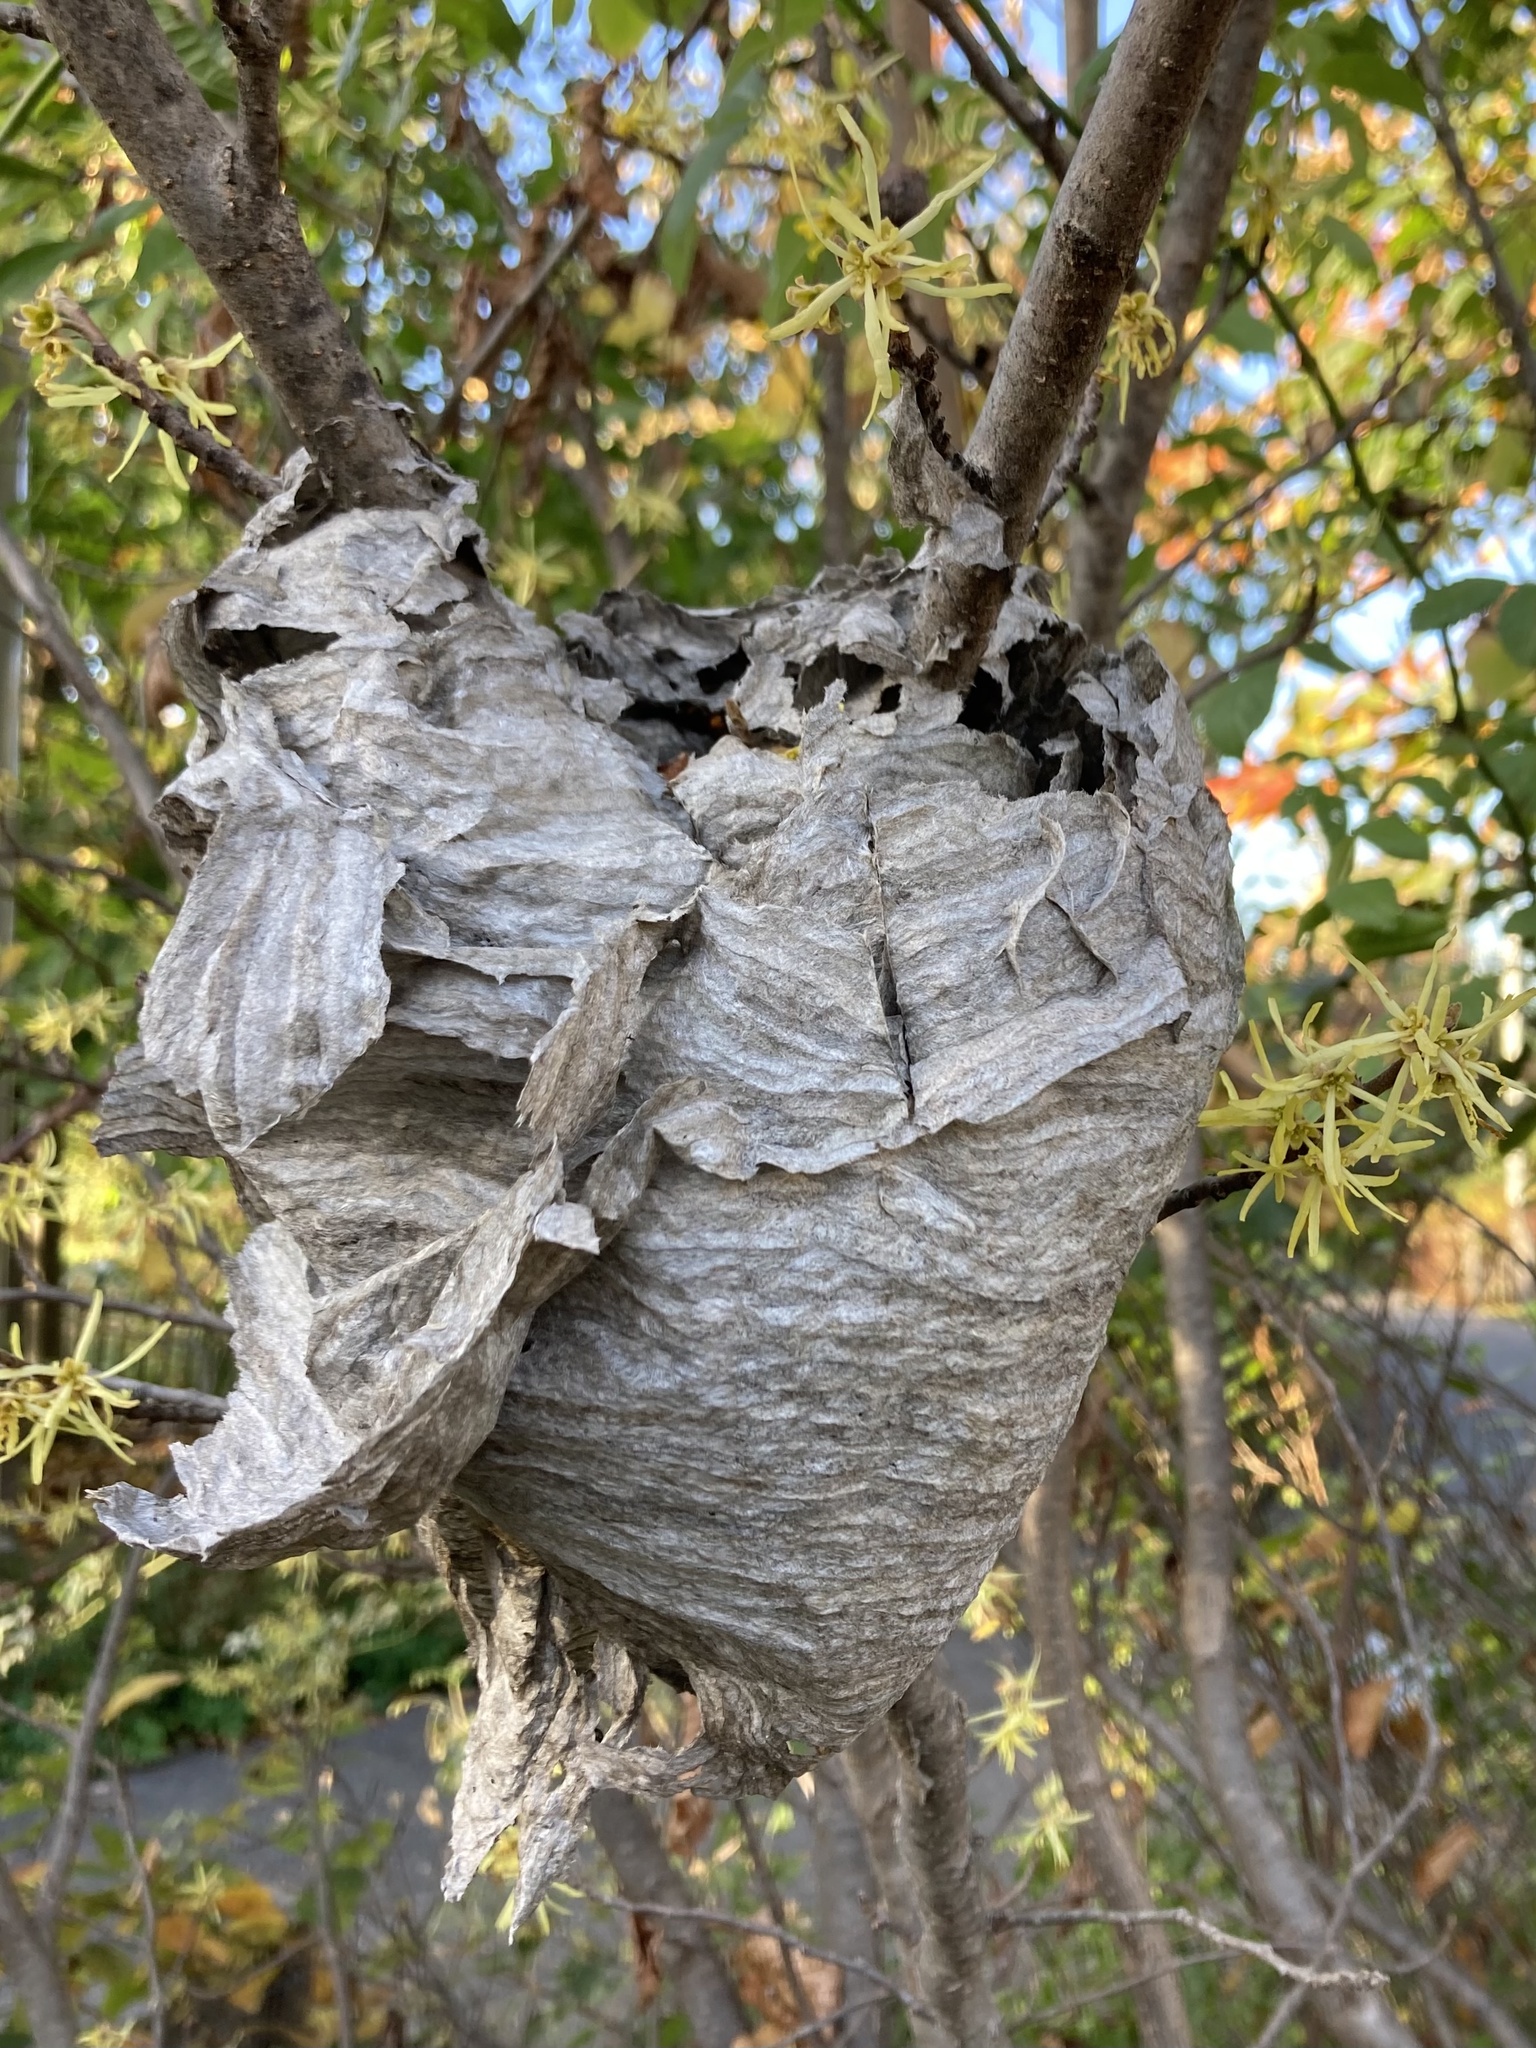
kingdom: Animalia
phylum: Arthropoda
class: Insecta
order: Hymenoptera
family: Vespidae
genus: Dolichovespula
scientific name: Dolichovespula maculata
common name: Bald-faced hornet
